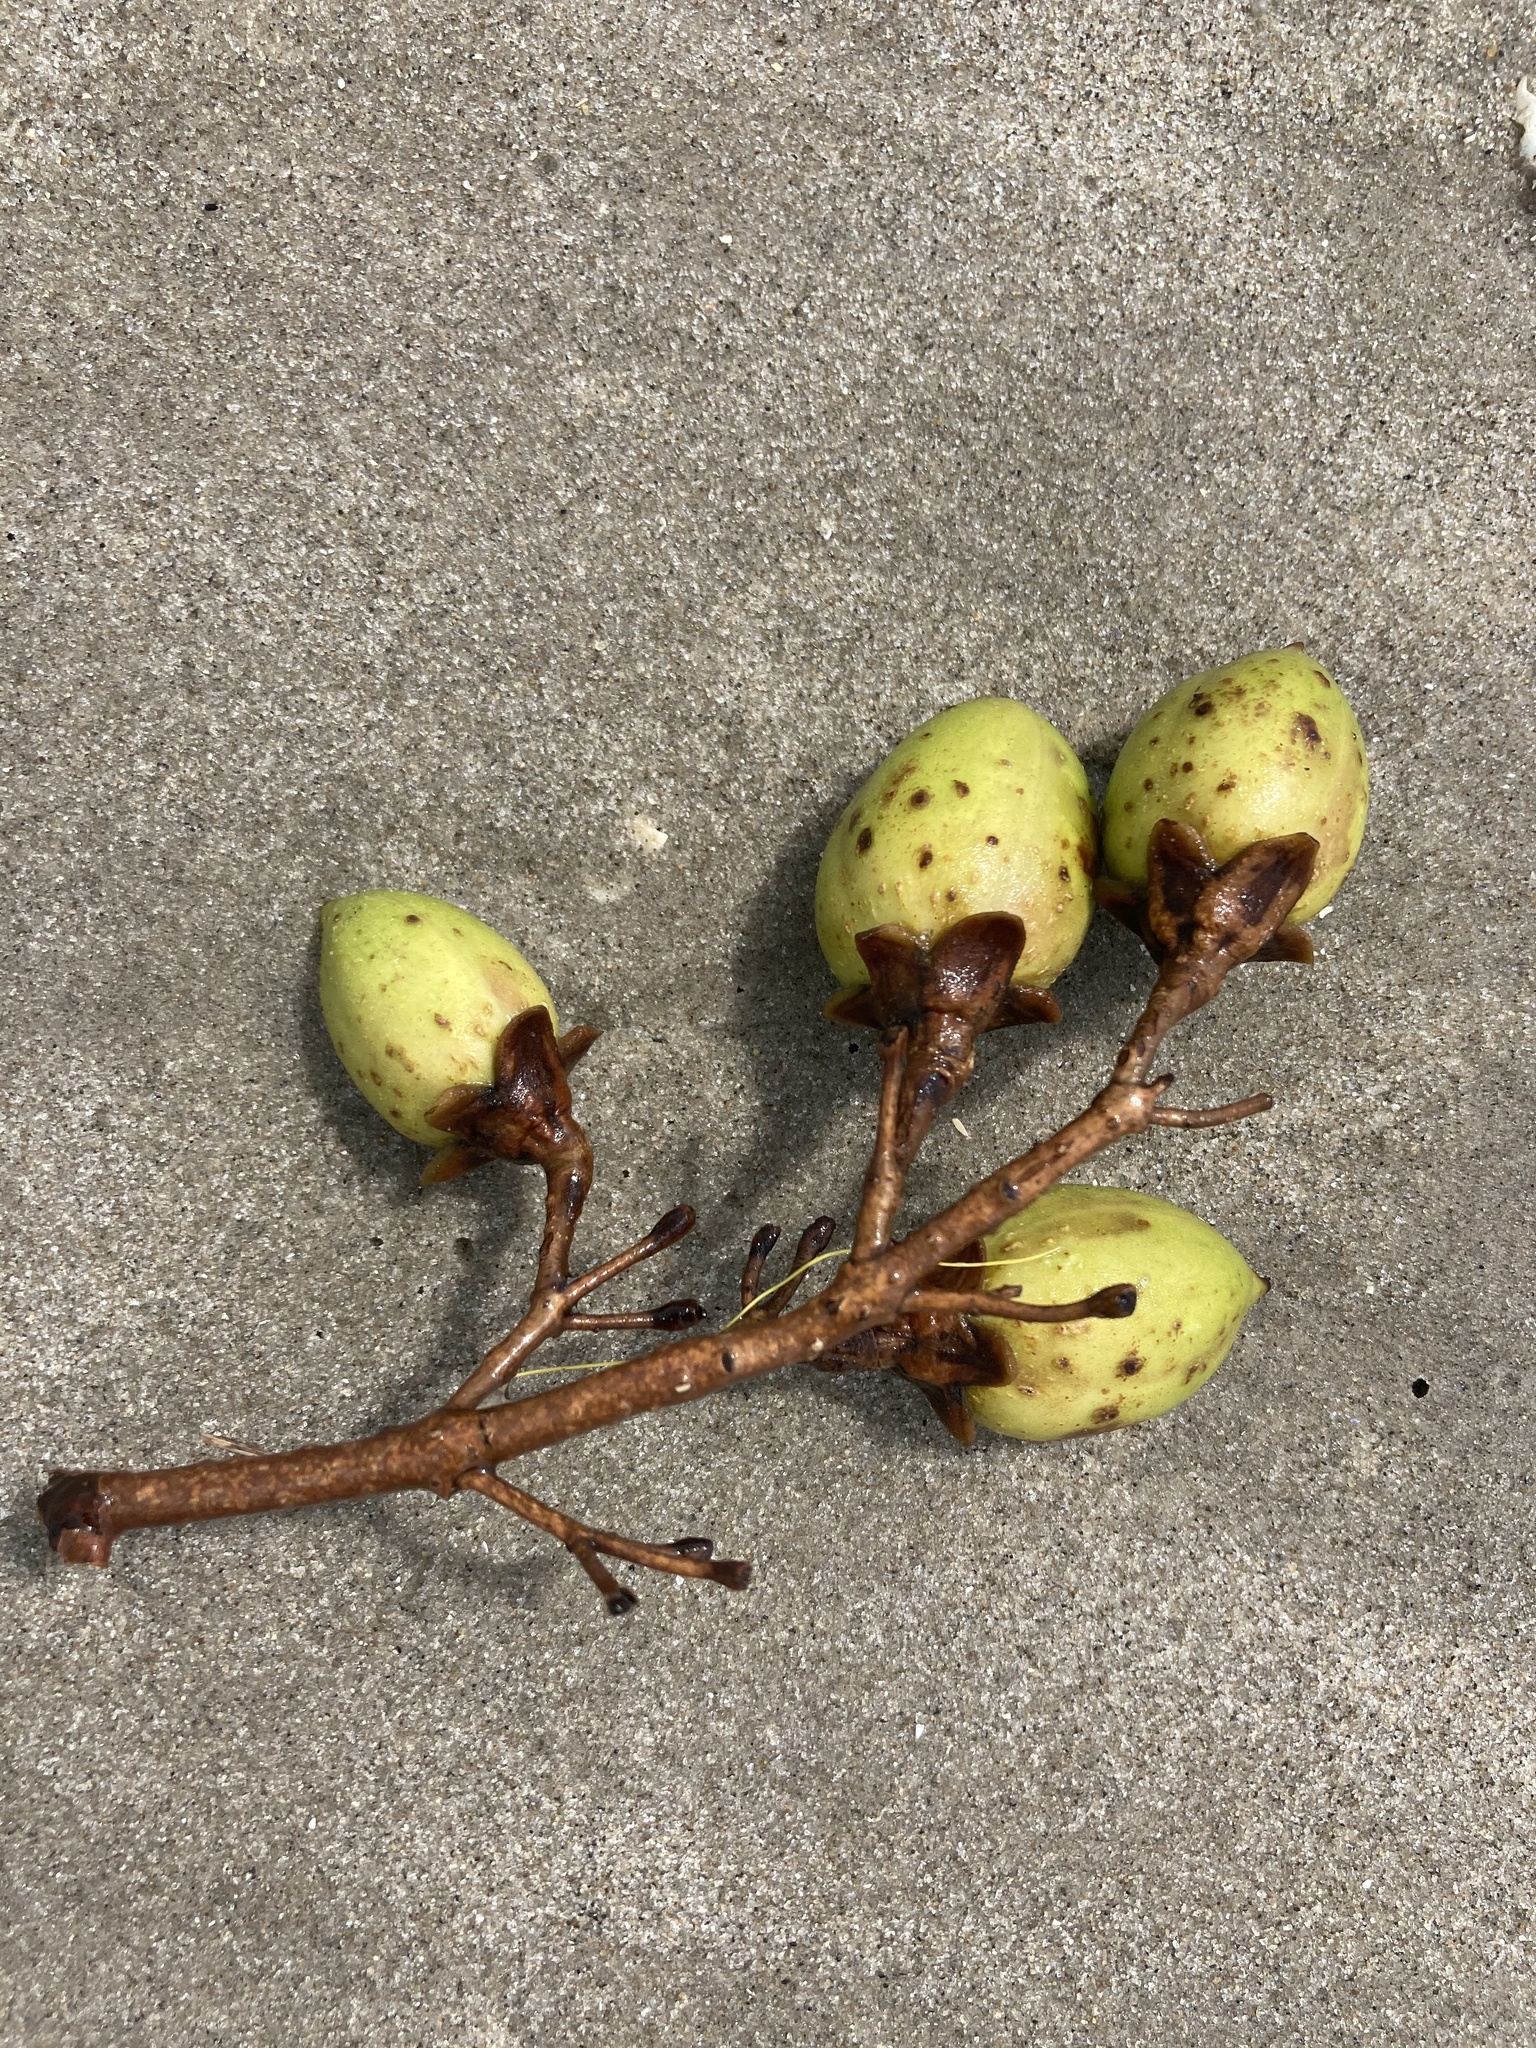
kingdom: Plantae
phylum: Tracheophyta
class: Magnoliopsida
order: Lamiales
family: Paulowniaceae
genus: Paulownia
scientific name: Paulownia tomentosa
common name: Foxglove-tree
